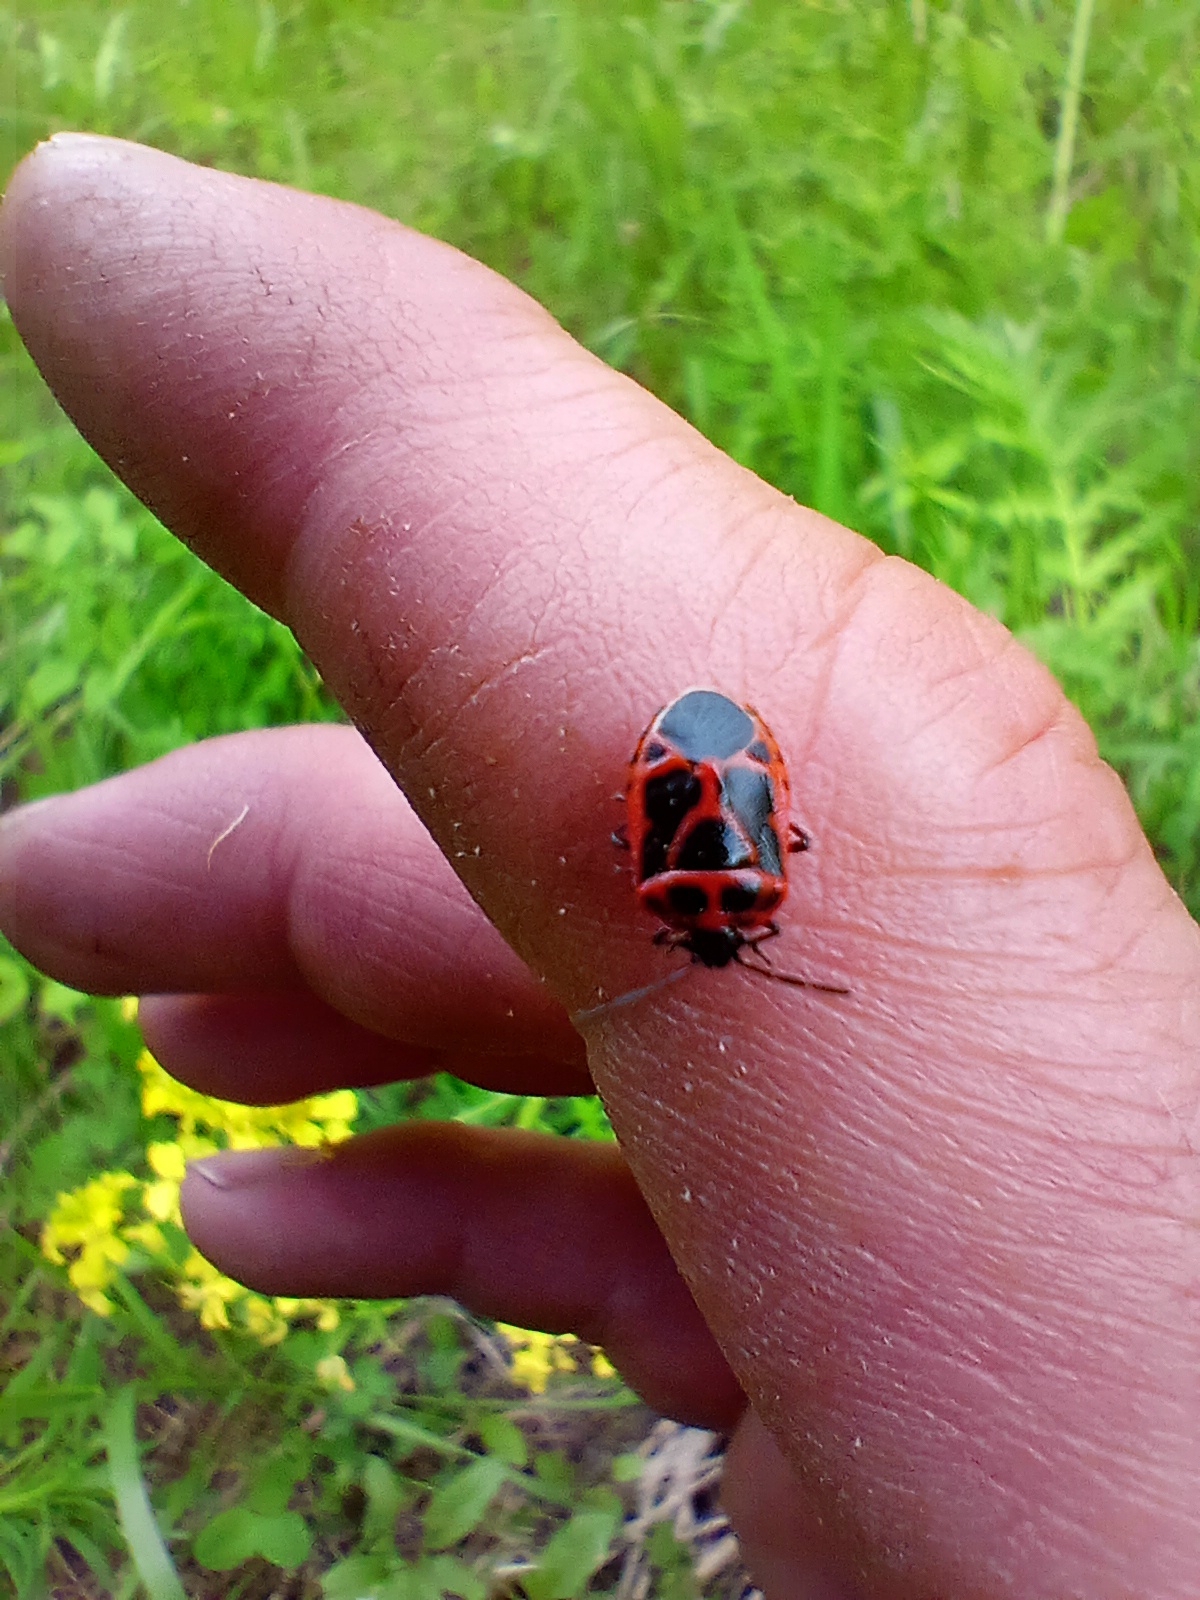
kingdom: Animalia
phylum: Arthropoda
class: Insecta
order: Hemiptera
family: Pentatomidae
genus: Eurydema
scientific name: Eurydema dominulus
